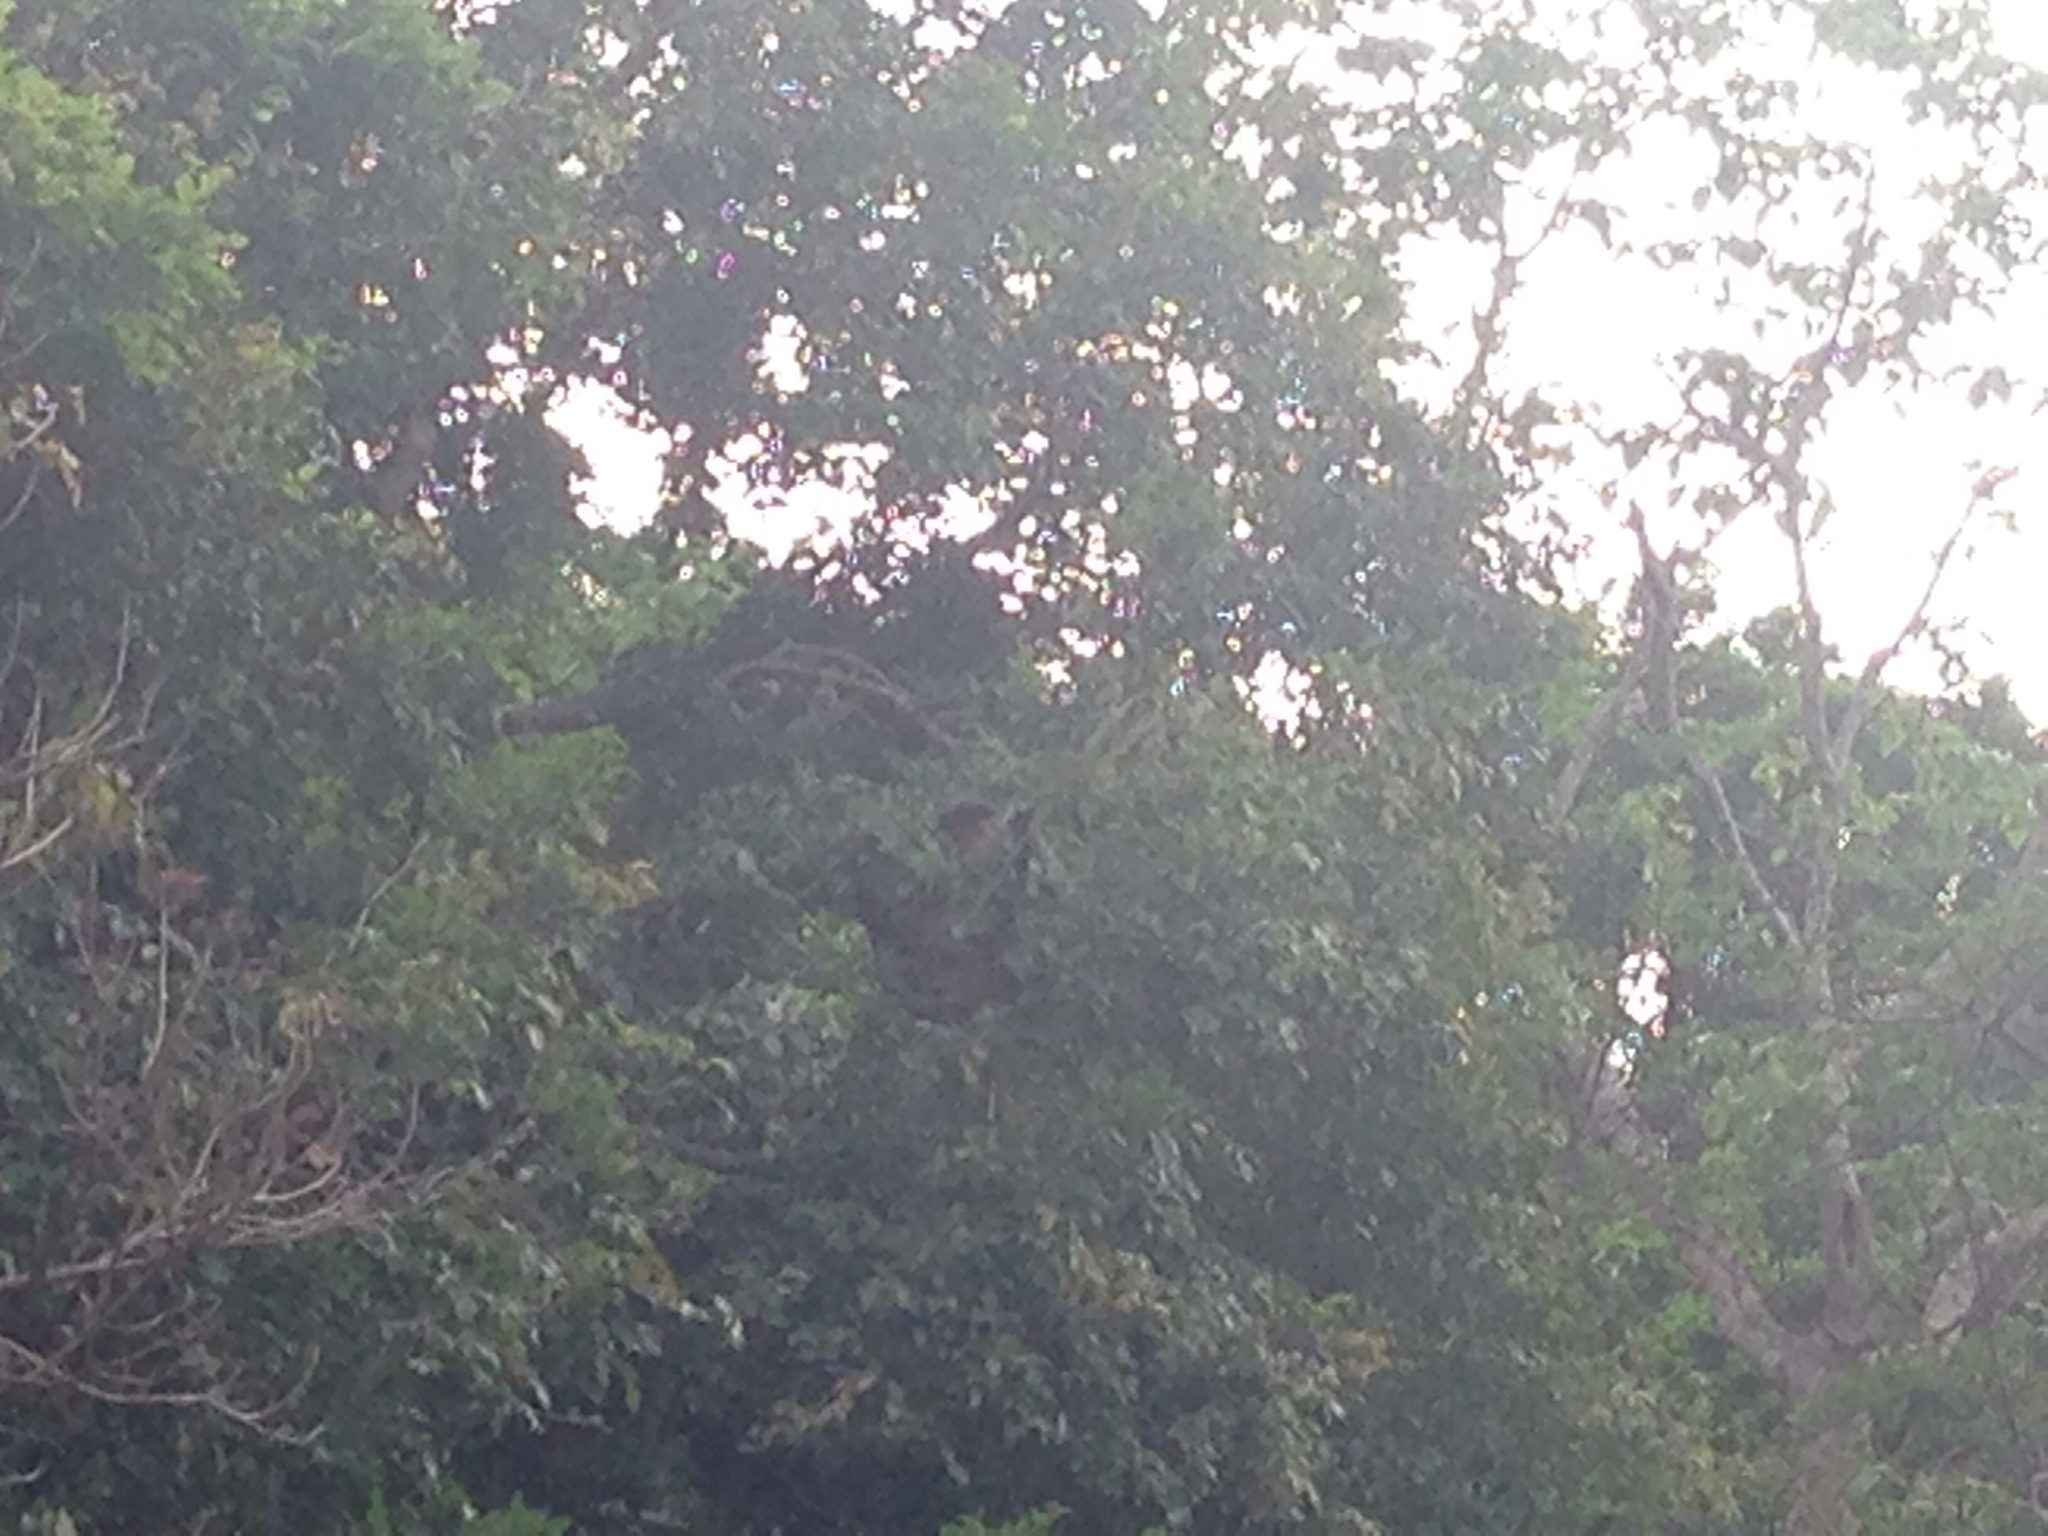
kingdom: Animalia
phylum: Chordata
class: Mammalia
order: Primates
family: Cercopithecidae
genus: Pygathrix
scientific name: Pygathrix nemaeus
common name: Red-shanked douc
